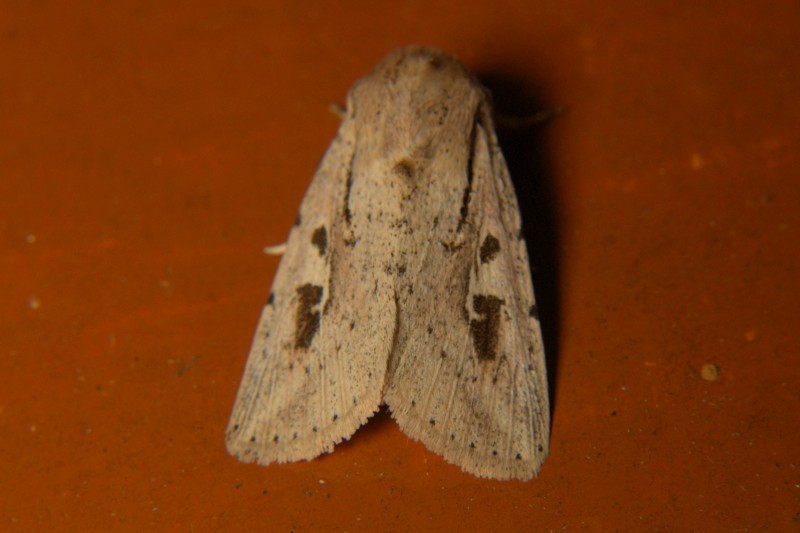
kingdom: Animalia
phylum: Arthropoda
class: Insecta
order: Lepidoptera
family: Noctuidae
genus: Leucania
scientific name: Leucania nigristriga
